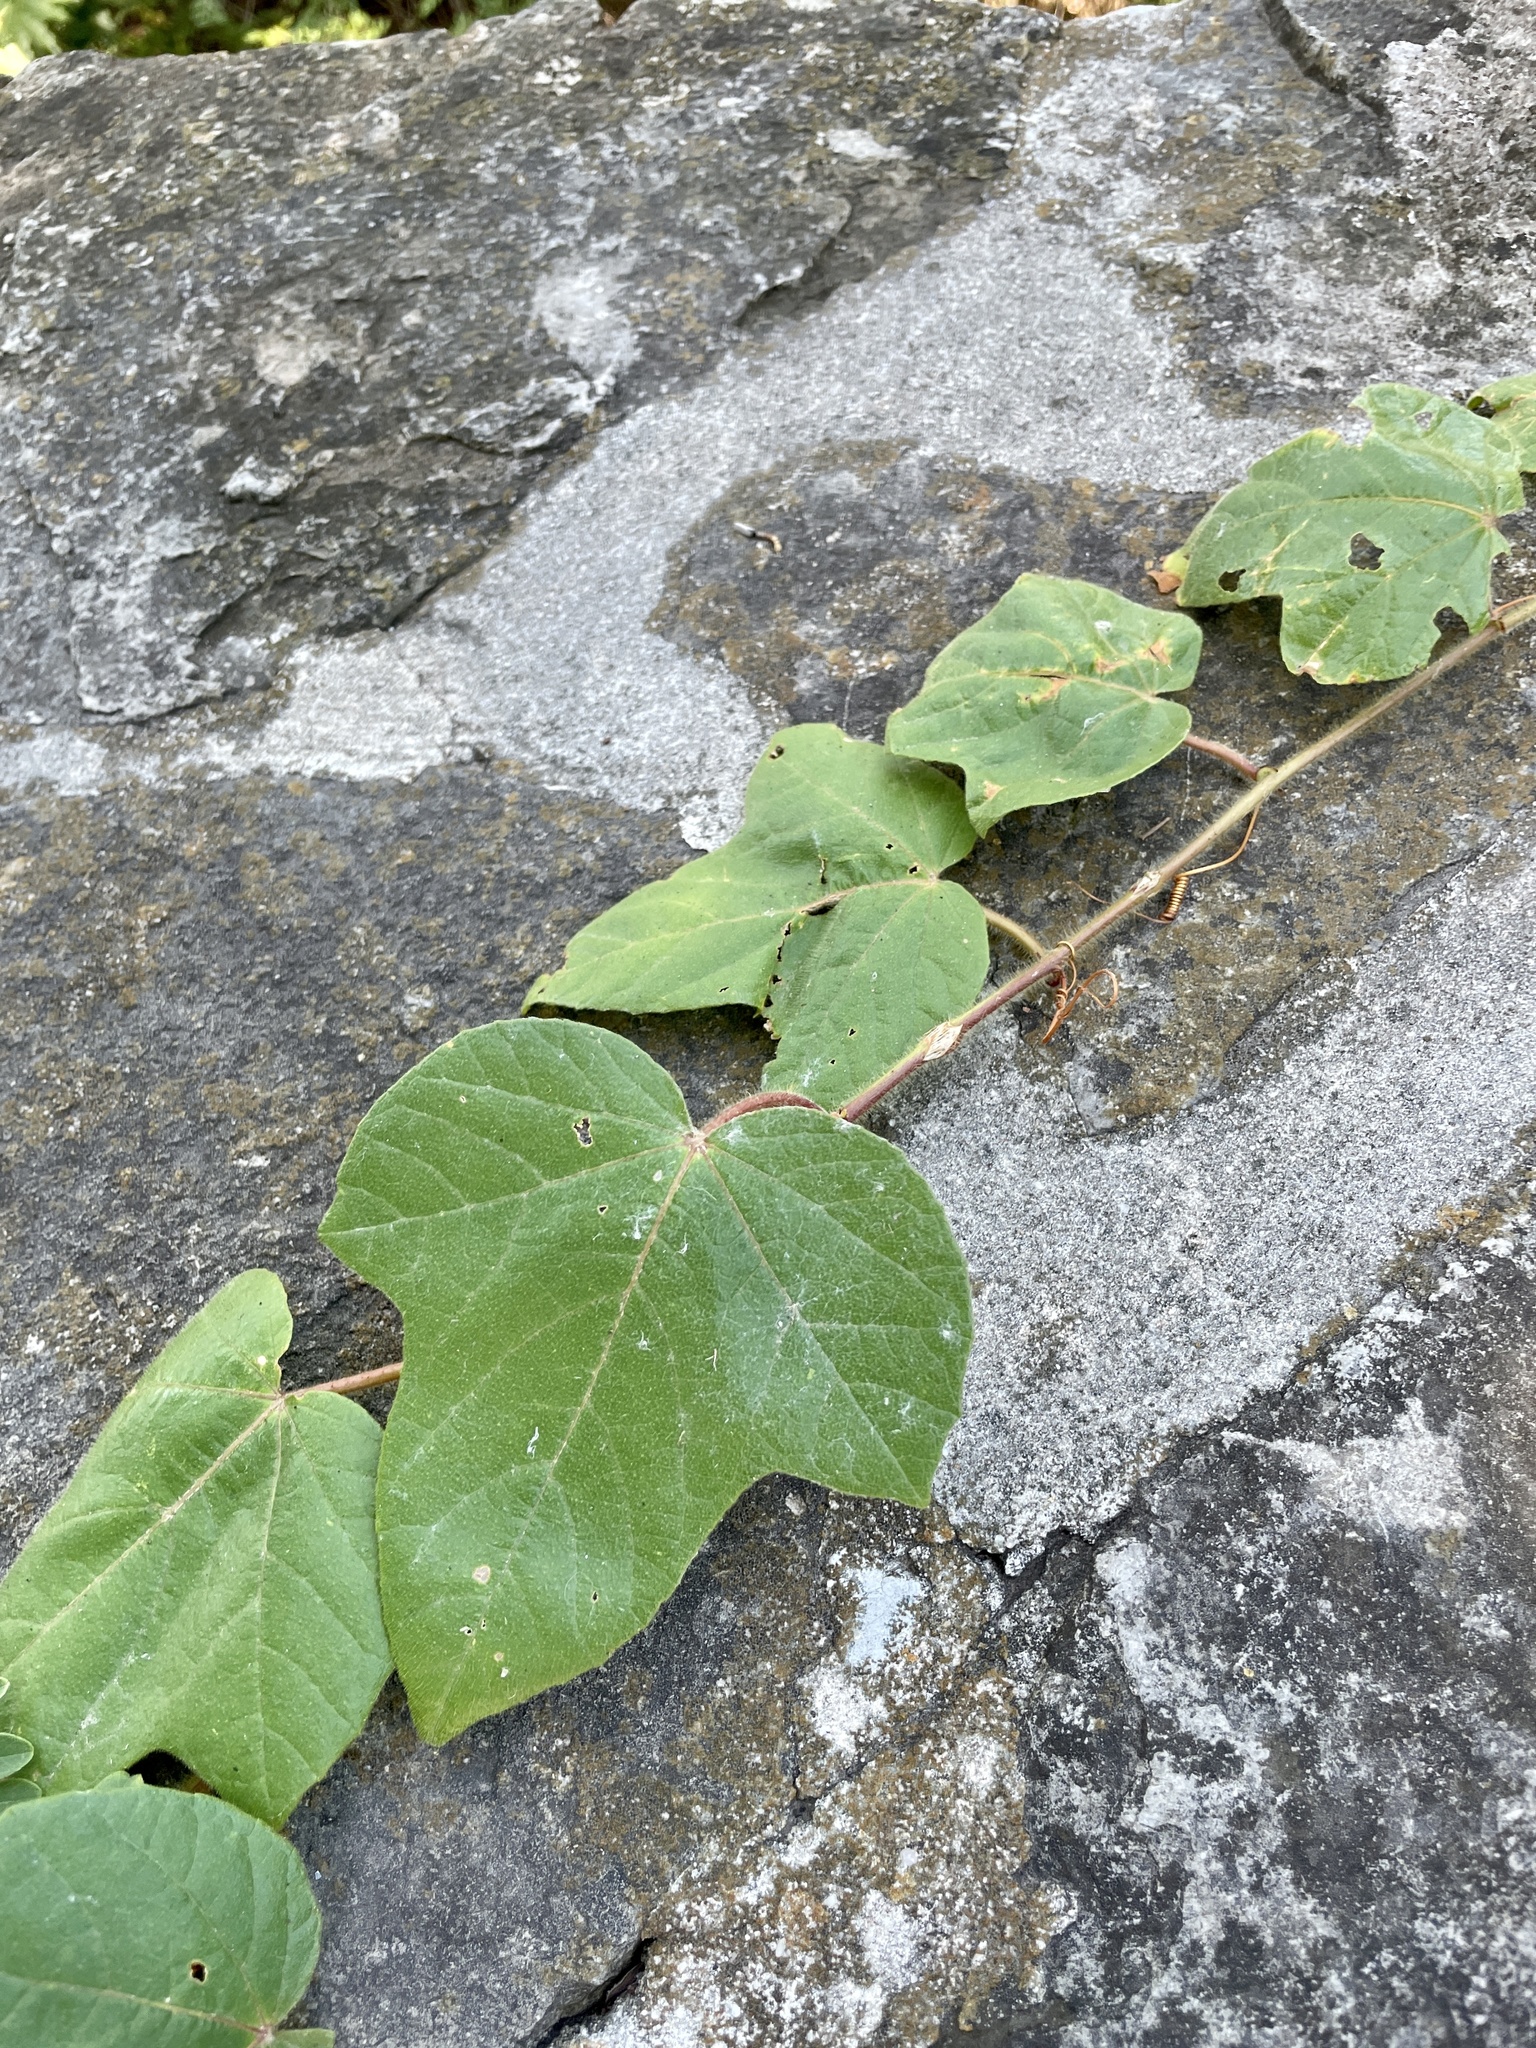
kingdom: Plantae
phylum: Tracheophyta
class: Magnoliopsida
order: Malpighiales
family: Passifloraceae
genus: Passiflora
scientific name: Passiflora
